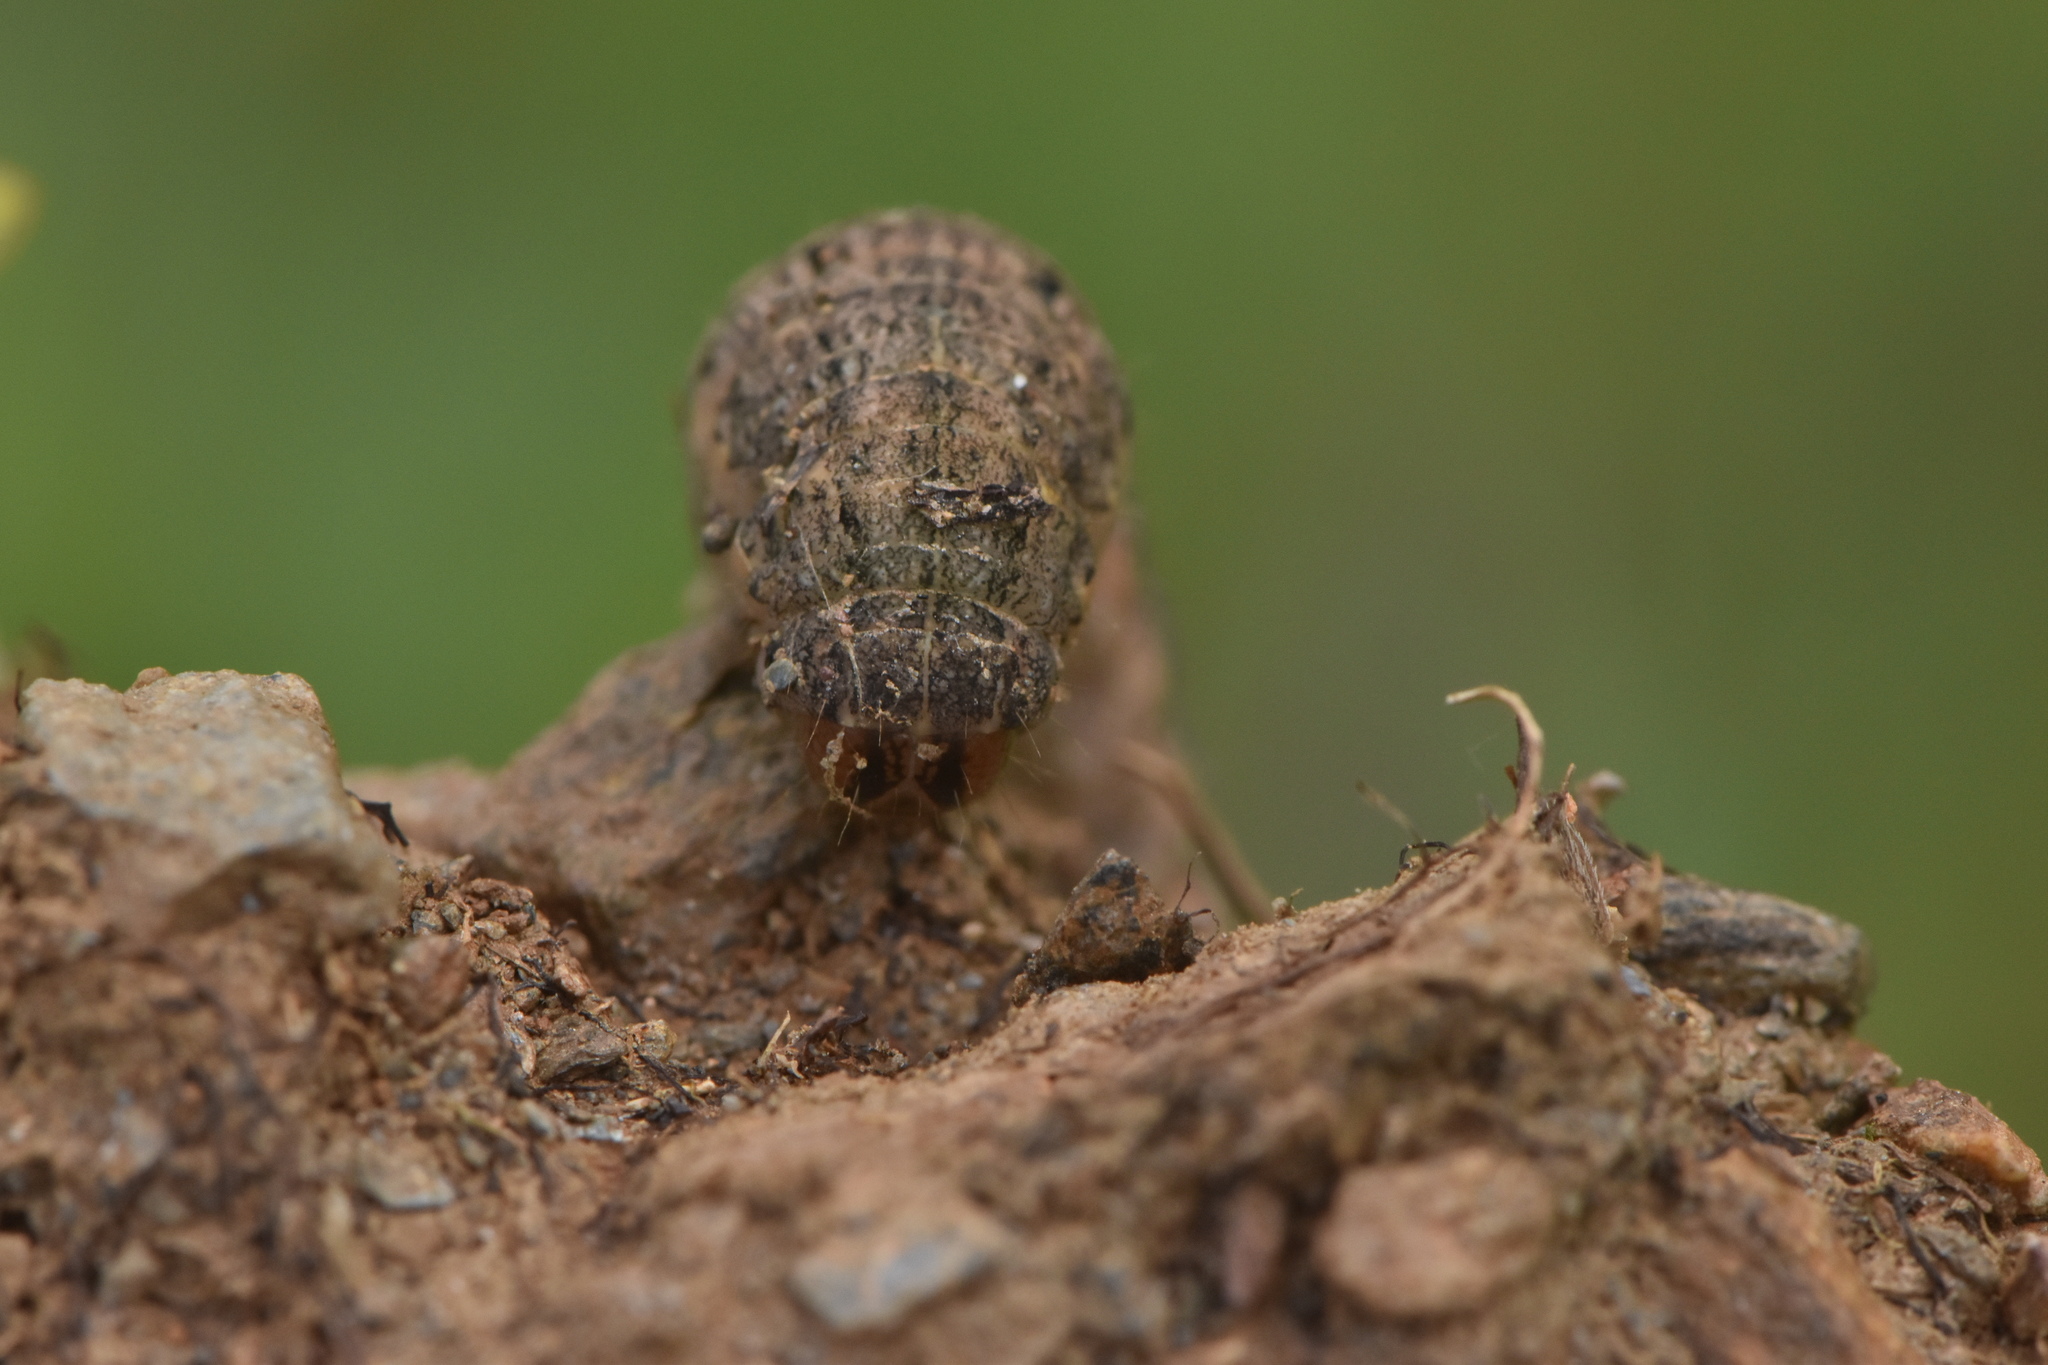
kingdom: Animalia
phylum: Arthropoda
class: Insecta
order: Lepidoptera
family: Noctuidae
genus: Noctua
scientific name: Noctua pronuba
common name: Large yellow underwing
